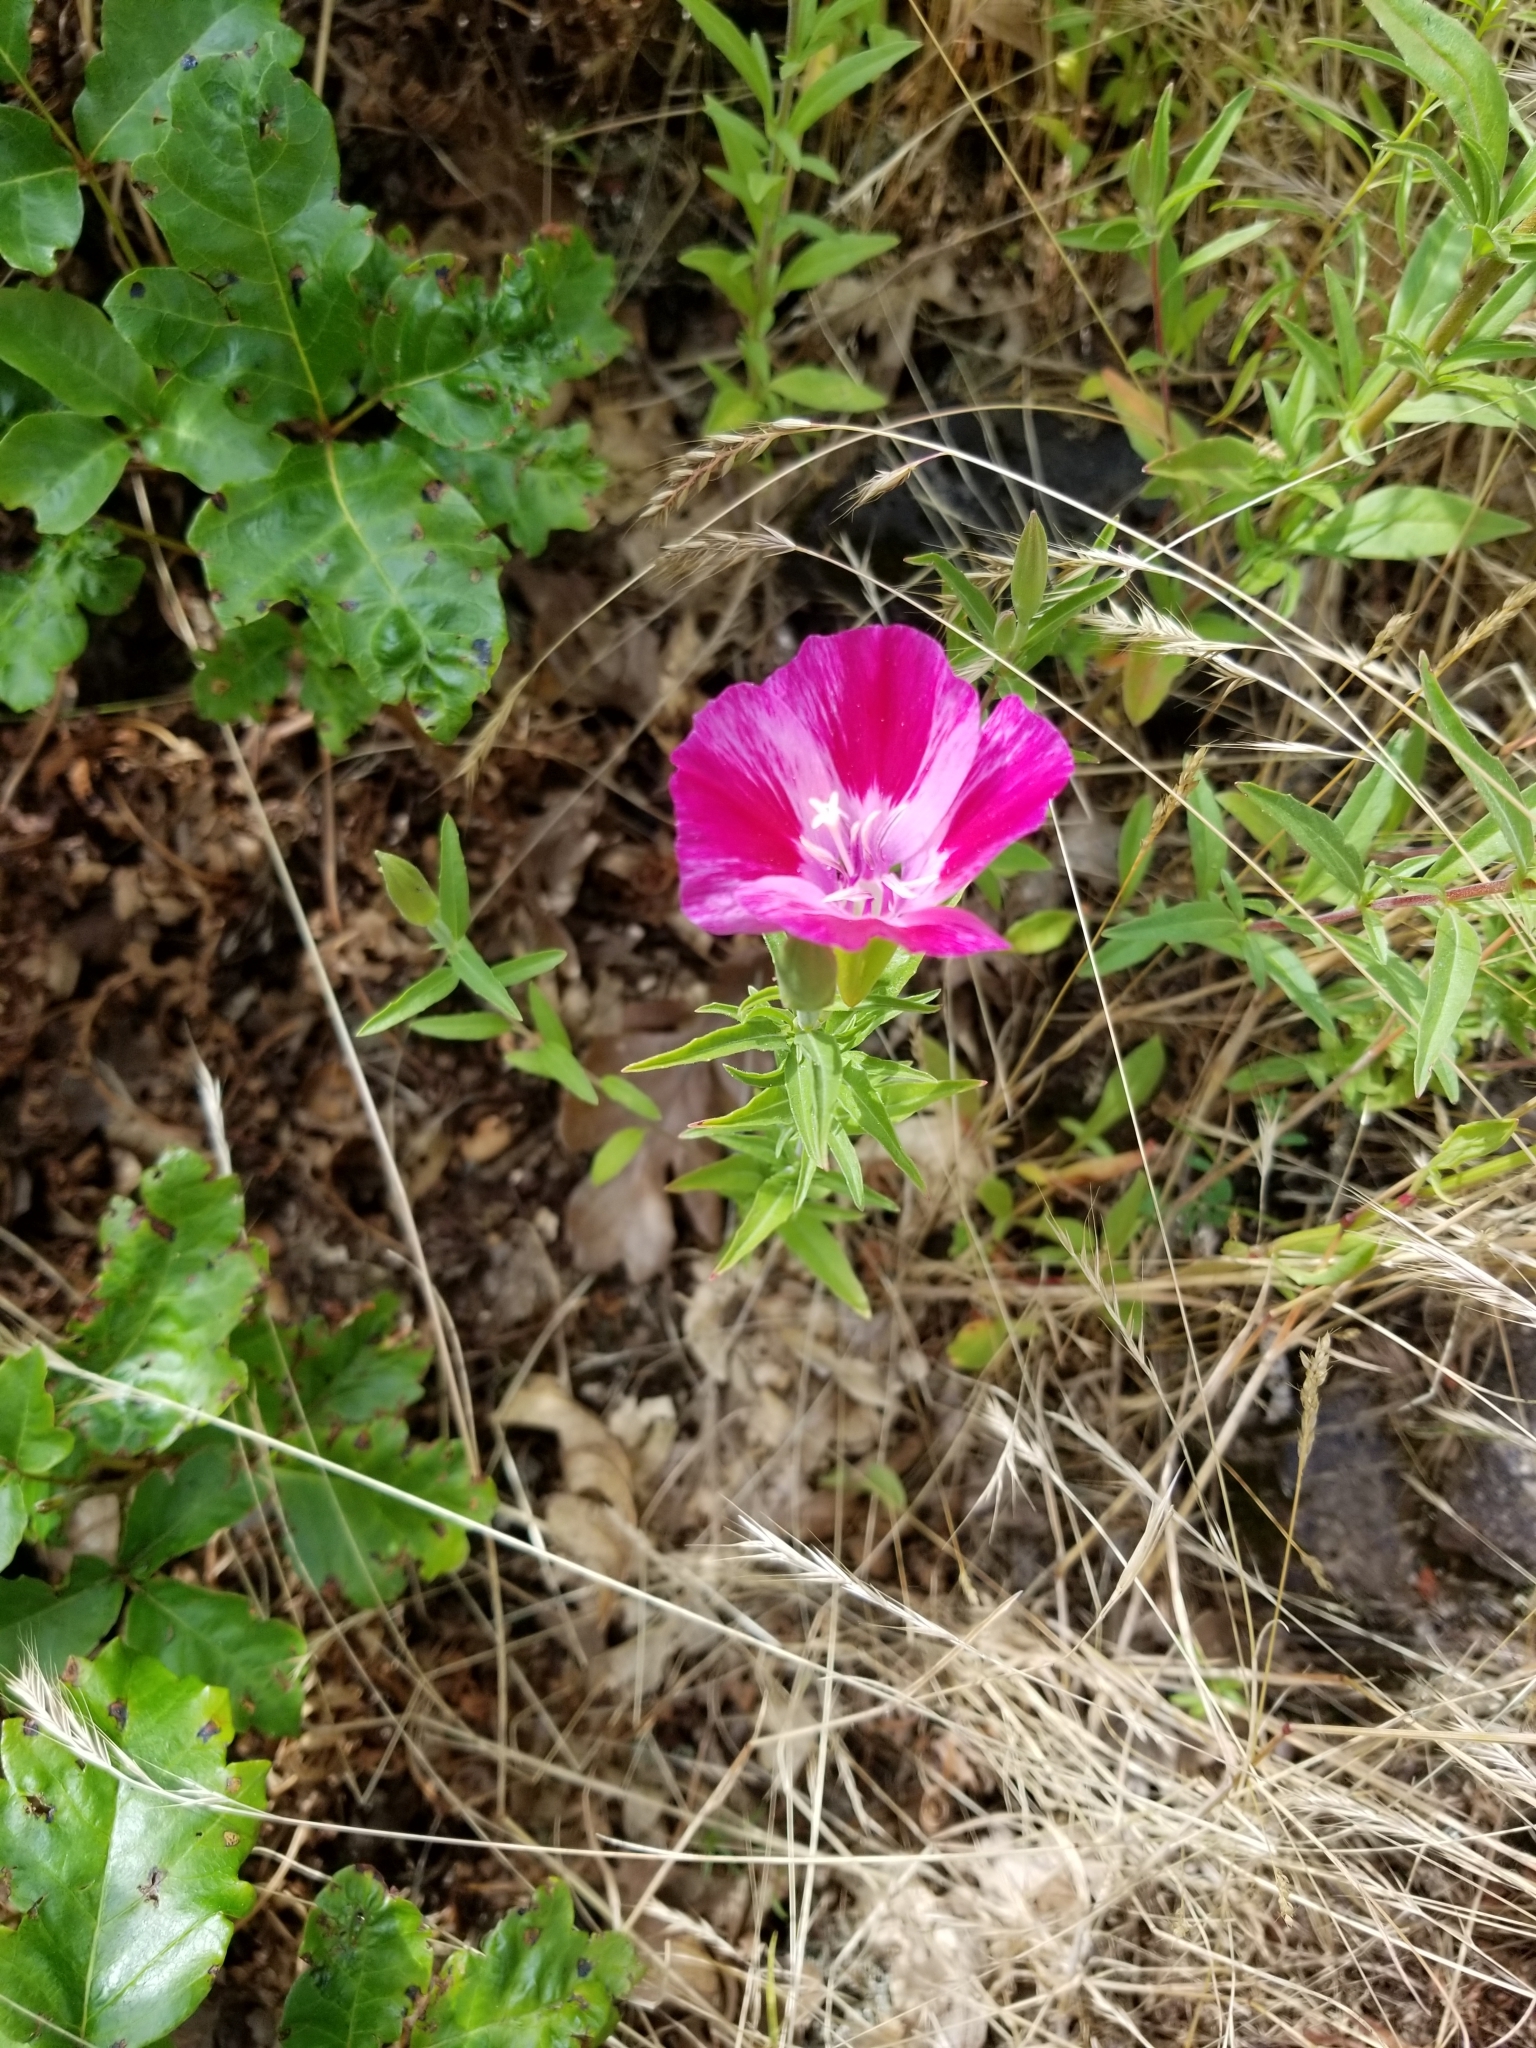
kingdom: Plantae
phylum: Tracheophyta
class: Magnoliopsida
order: Myrtales
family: Onagraceae
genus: Clarkia
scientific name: Clarkia amoena
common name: Godetia
